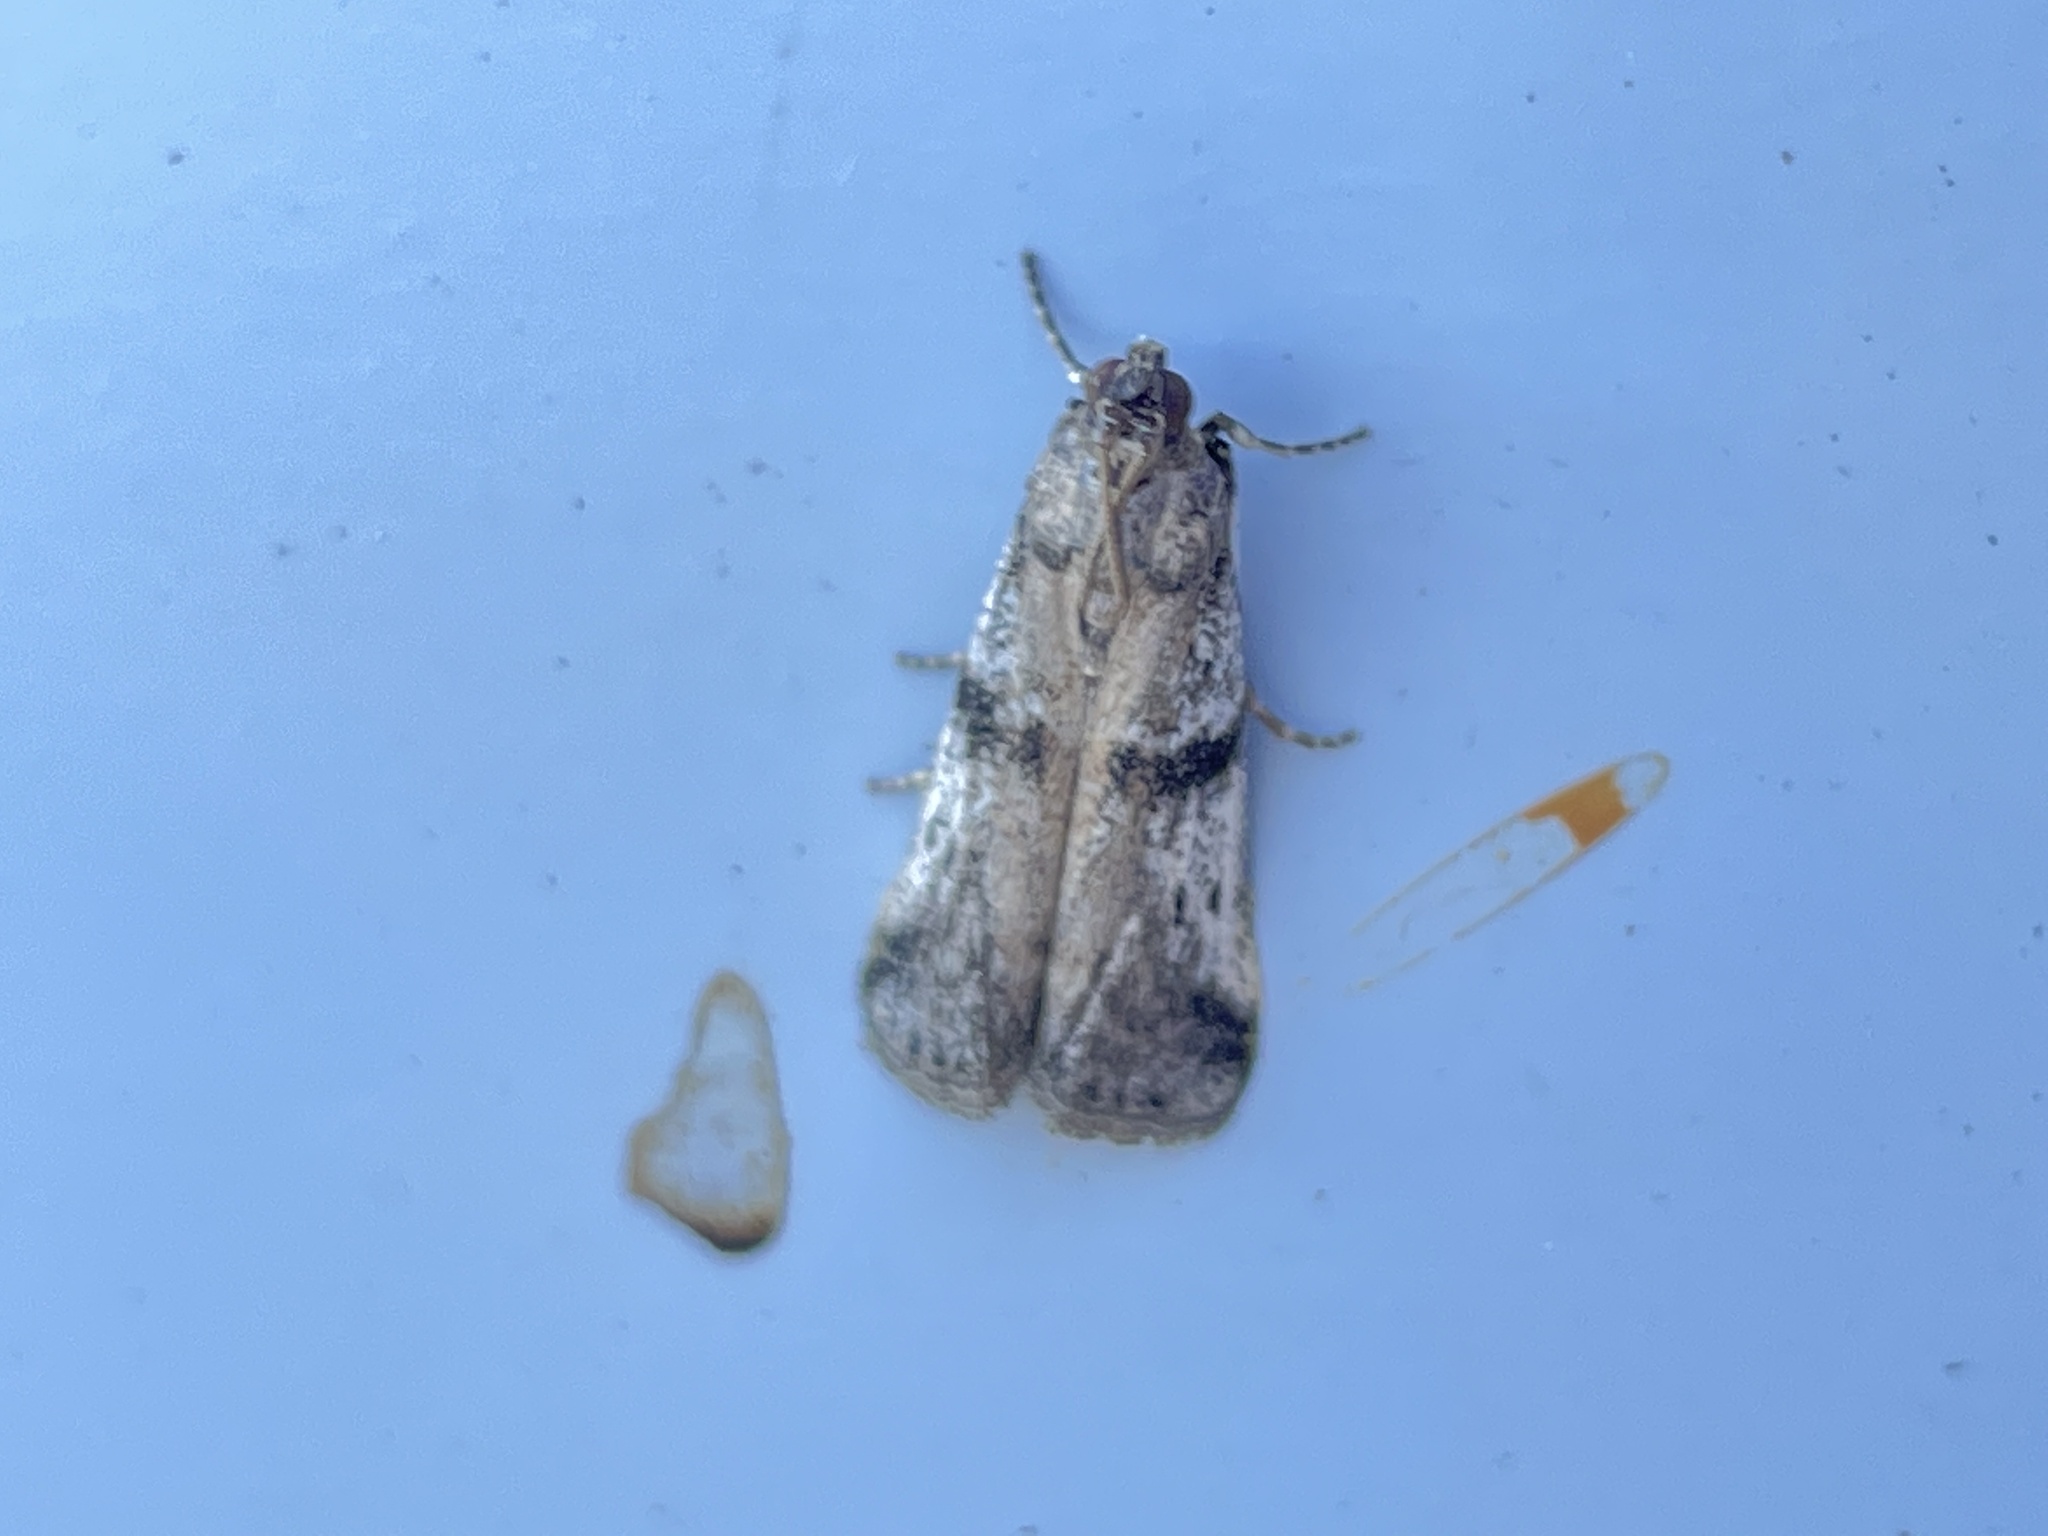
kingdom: Animalia
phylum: Arthropoda
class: Insecta
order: Lepidoptera
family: Pyralidae
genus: Ephestia
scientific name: Ephestia welseriella
